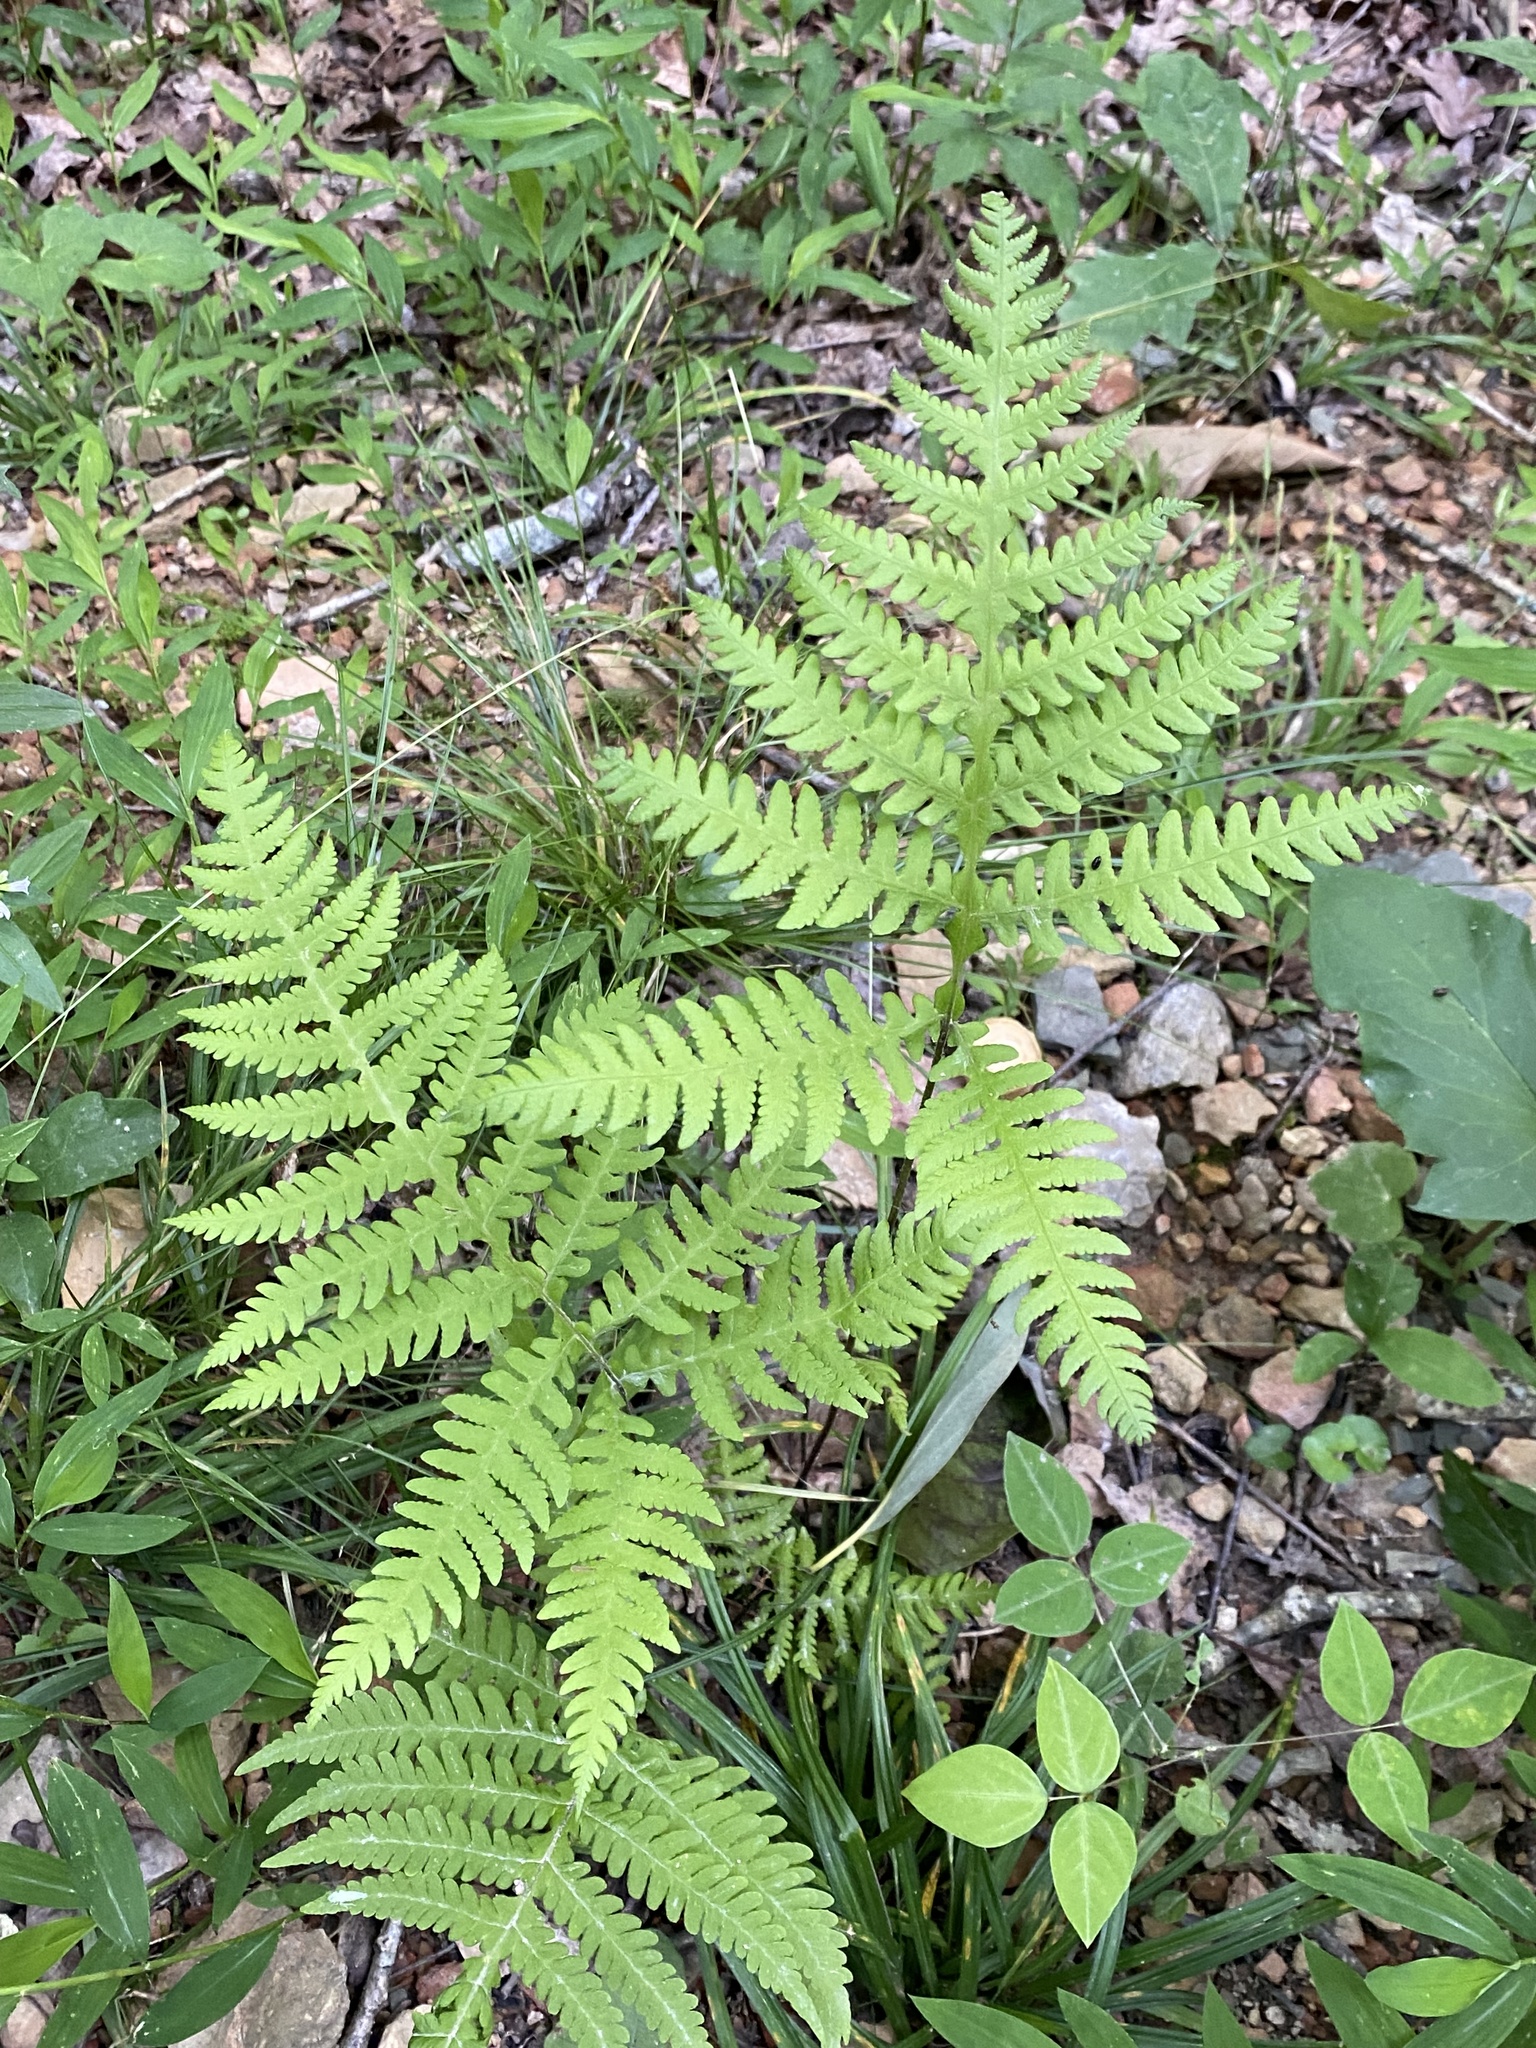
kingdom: Plantae
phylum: Tracheophyta
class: Polypodiopsida
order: Polypodiales
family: Thelypteridaceae
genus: Phegopteris
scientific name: Phegopteris hexagonoptera
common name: Broad beech fern
